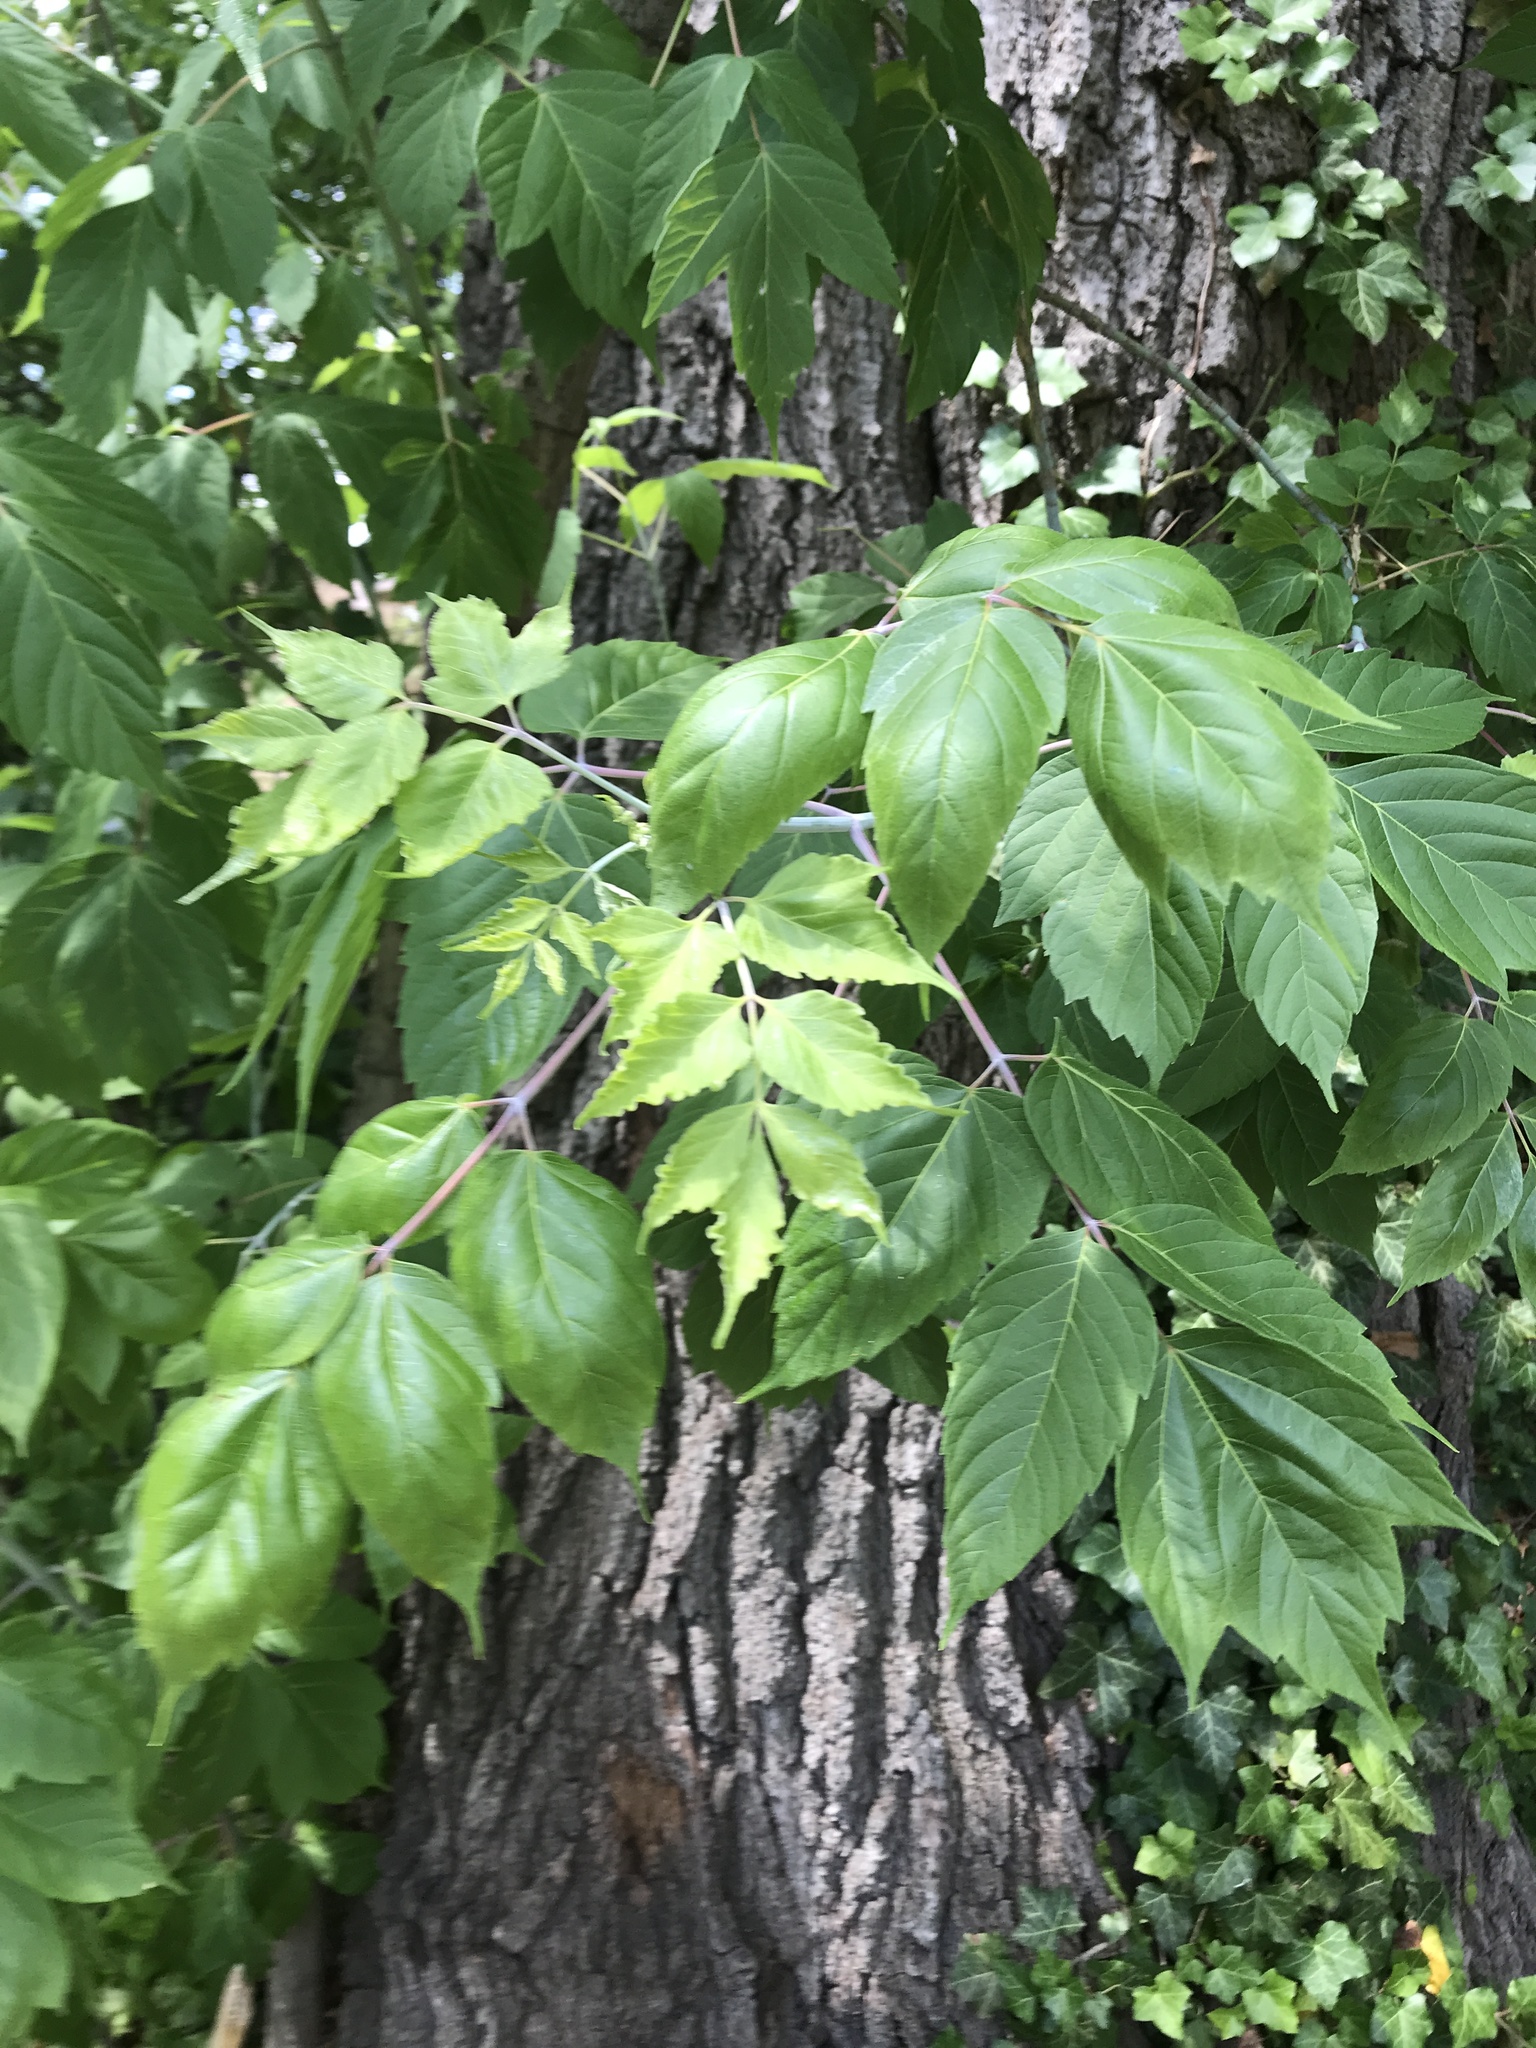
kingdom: Plantae
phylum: Tracheophyta
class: Magnoliopsida
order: Sapindales
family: Sapindaceae
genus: Acer
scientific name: Acer negundo
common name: Ashleaf maple
